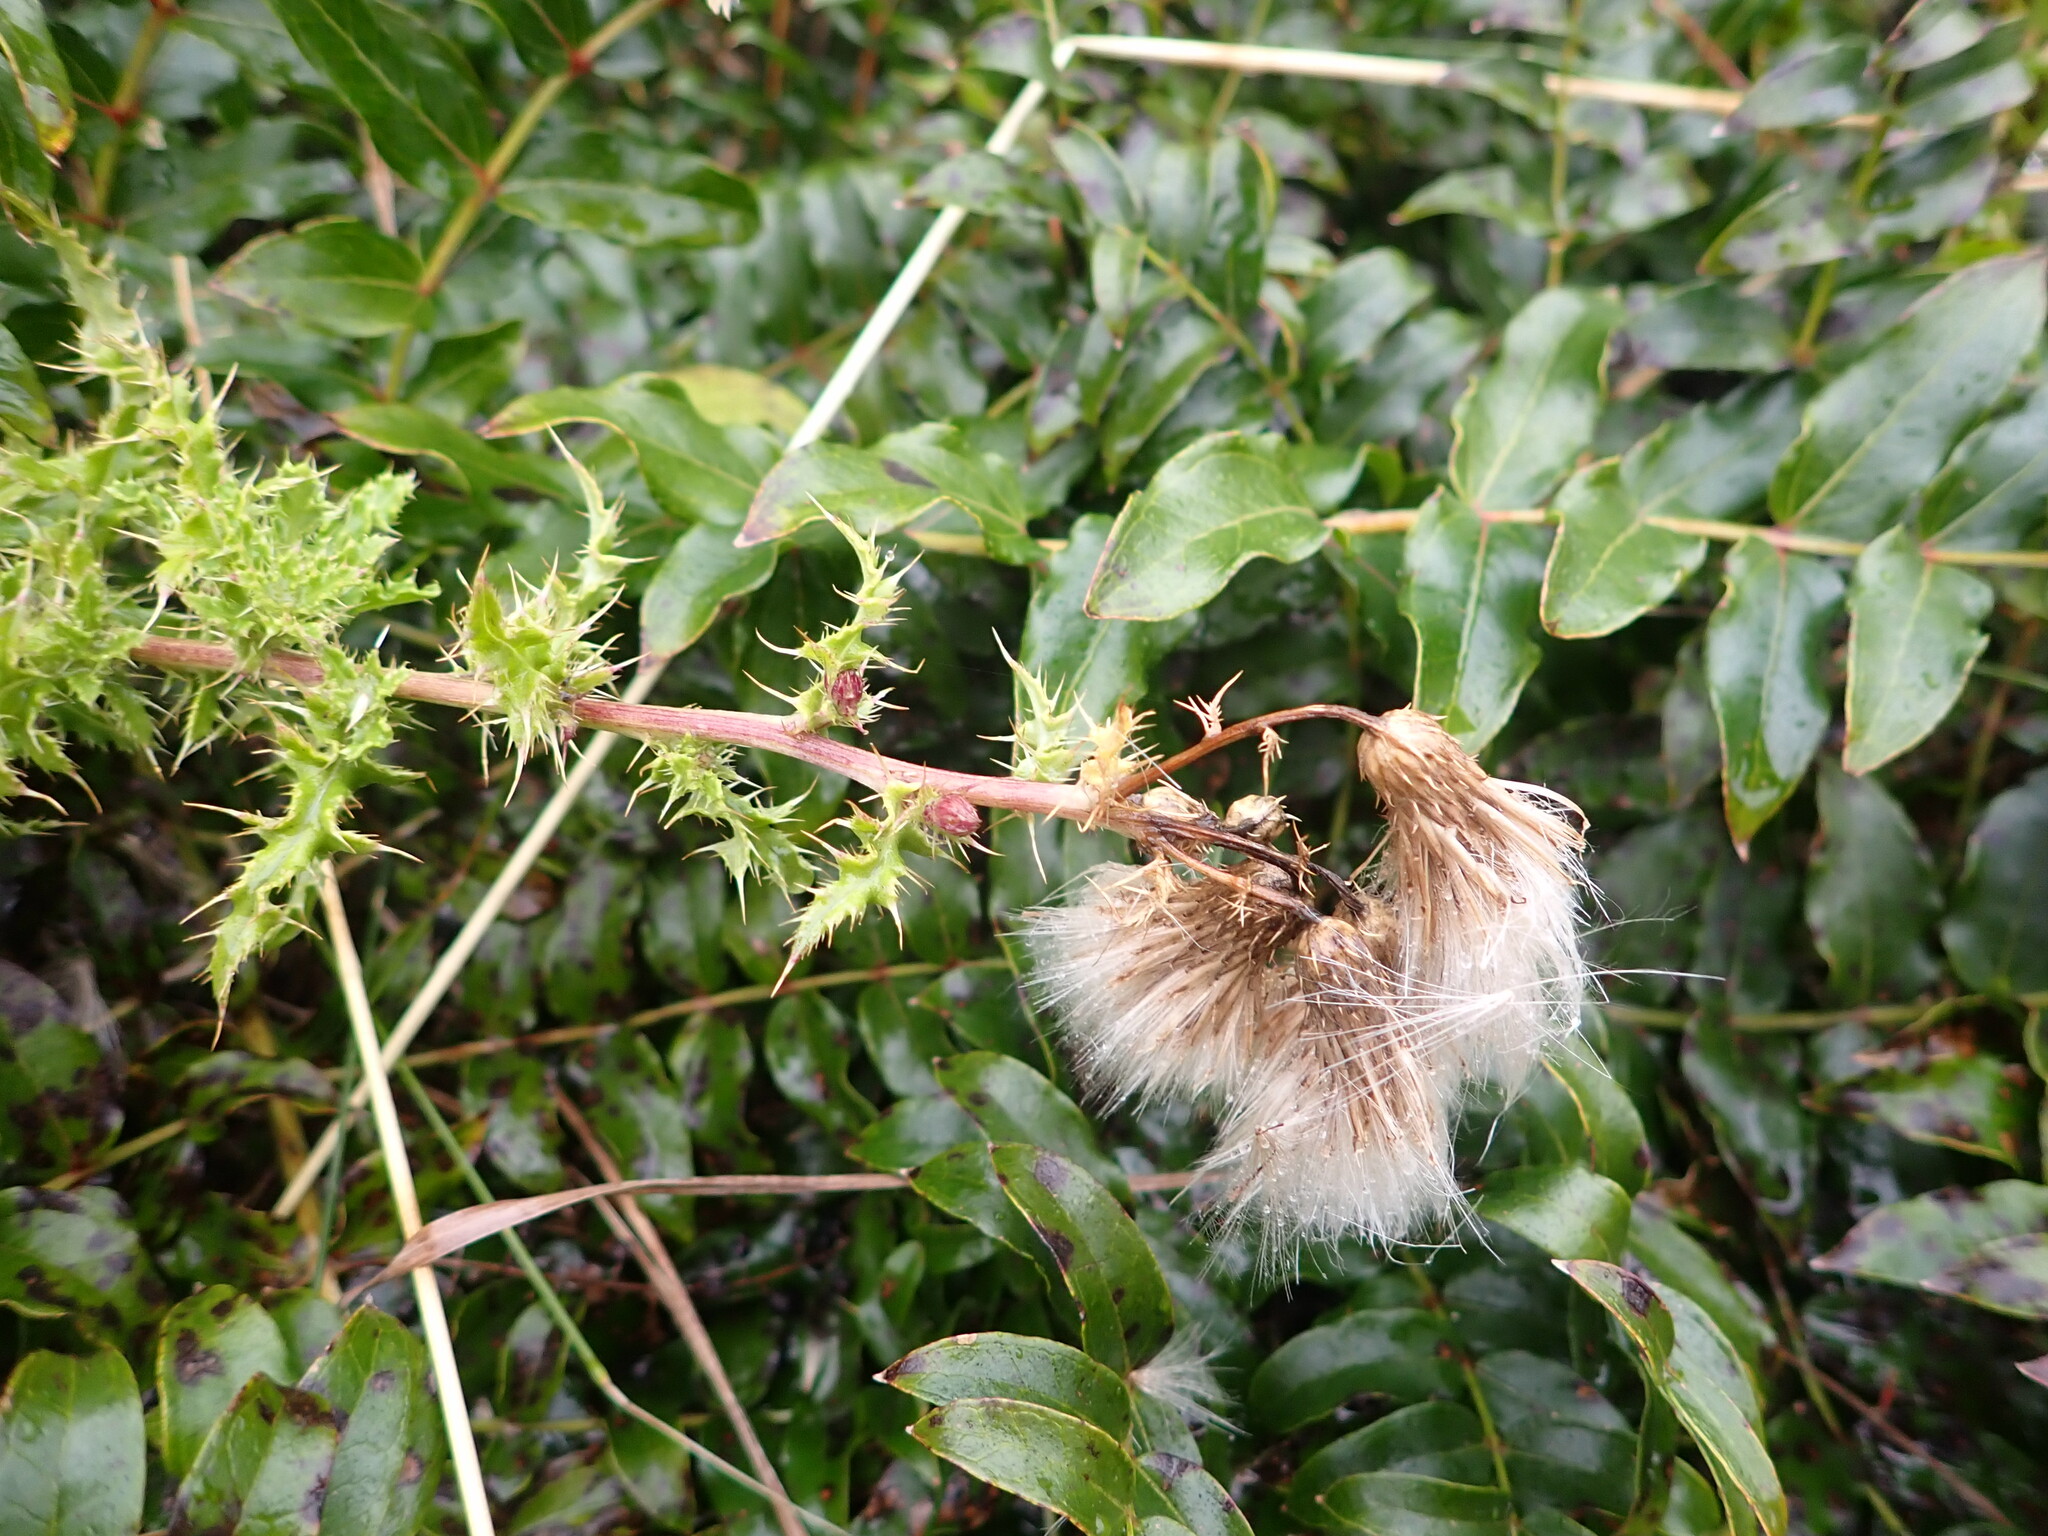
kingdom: Plantae
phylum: Tracheophyta
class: Magnoliopsida
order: Asterales
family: Asteraceae
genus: Cirsium
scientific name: Cirsium arvense
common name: Creeping thistle
